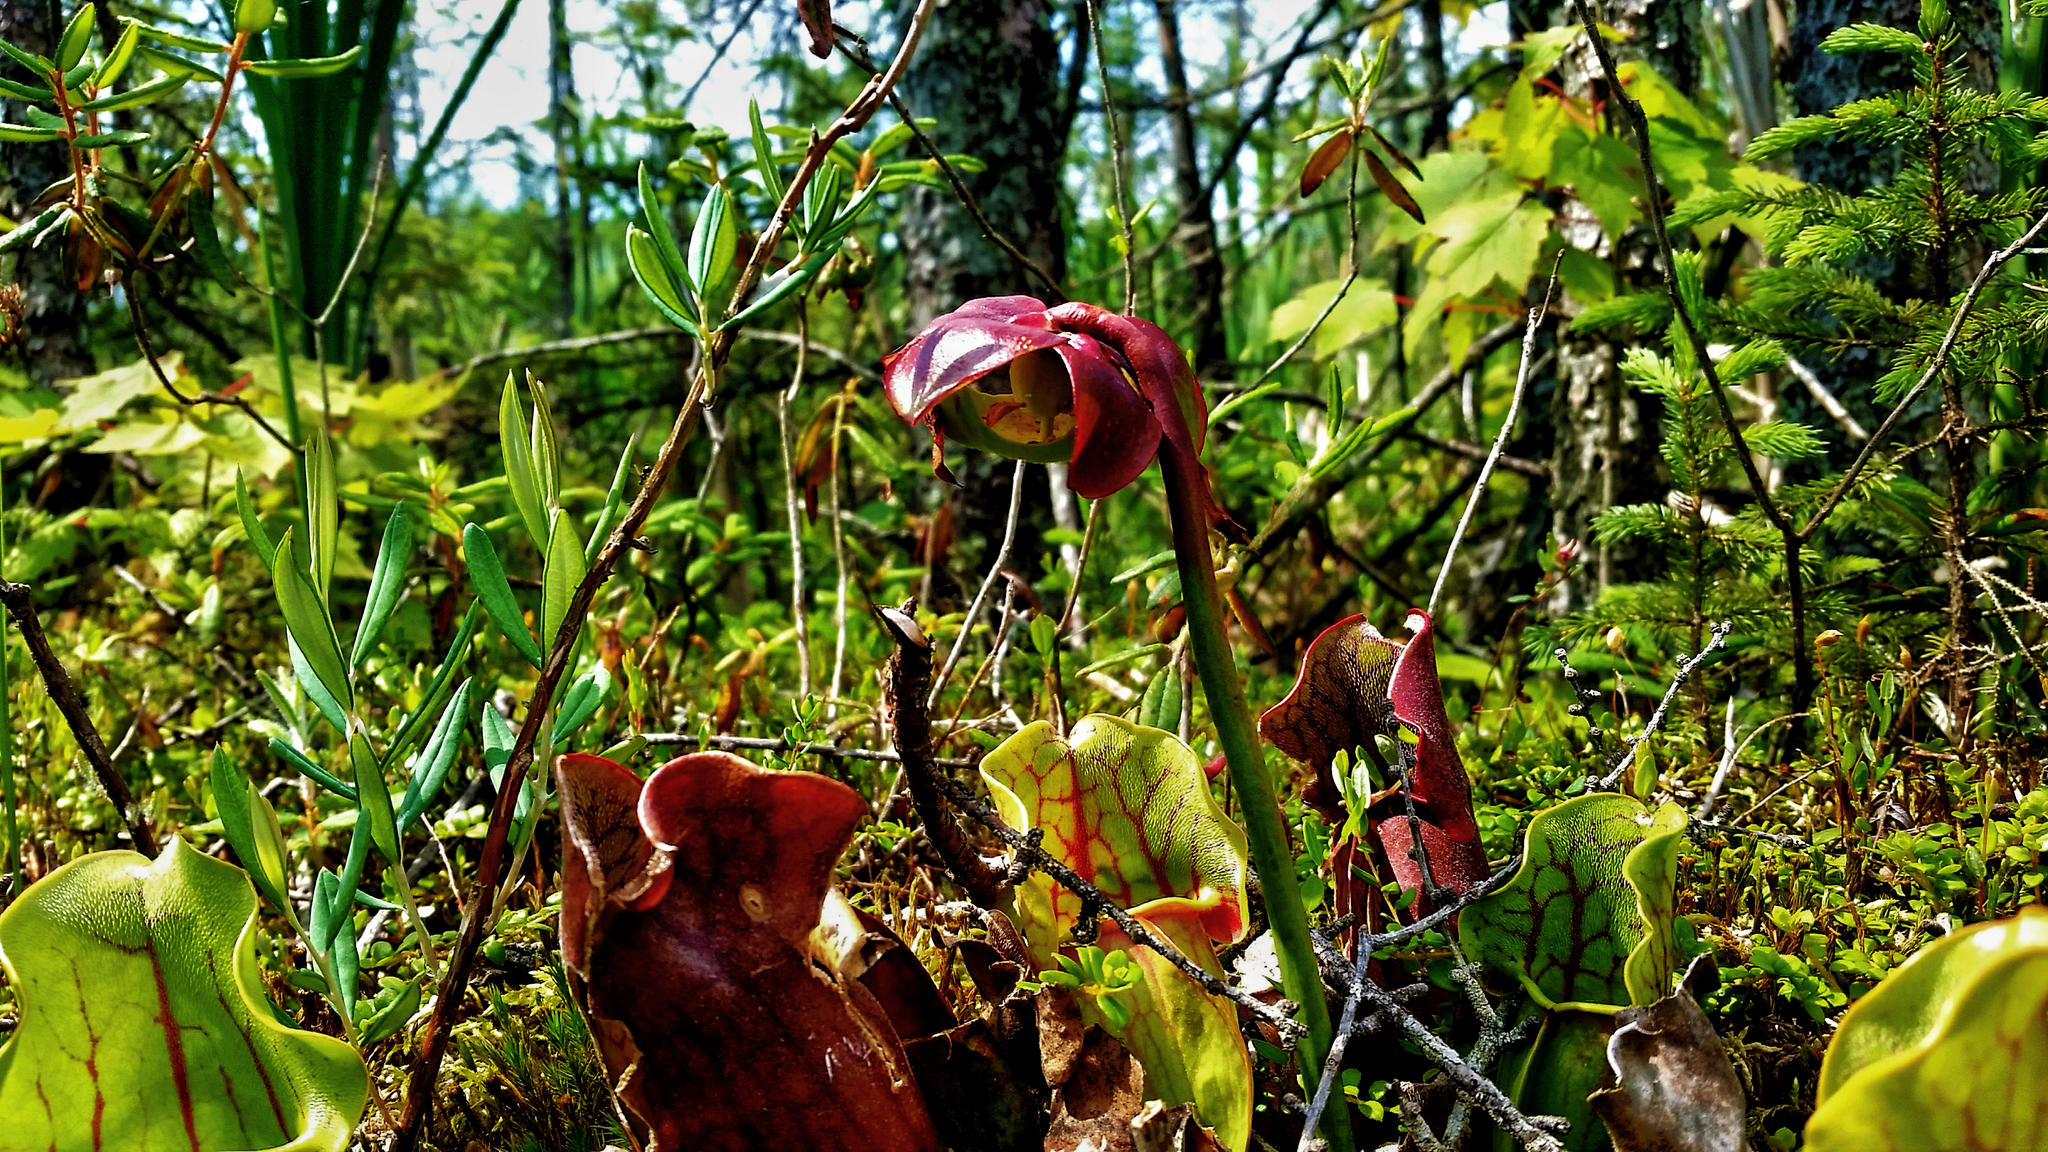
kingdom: Plantae
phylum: Tracheophyta
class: Magnoliopsida
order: Ericales
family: Sarraceniaceae
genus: Sarracenia
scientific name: Sarracenia purpurea
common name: Pitcherplant
